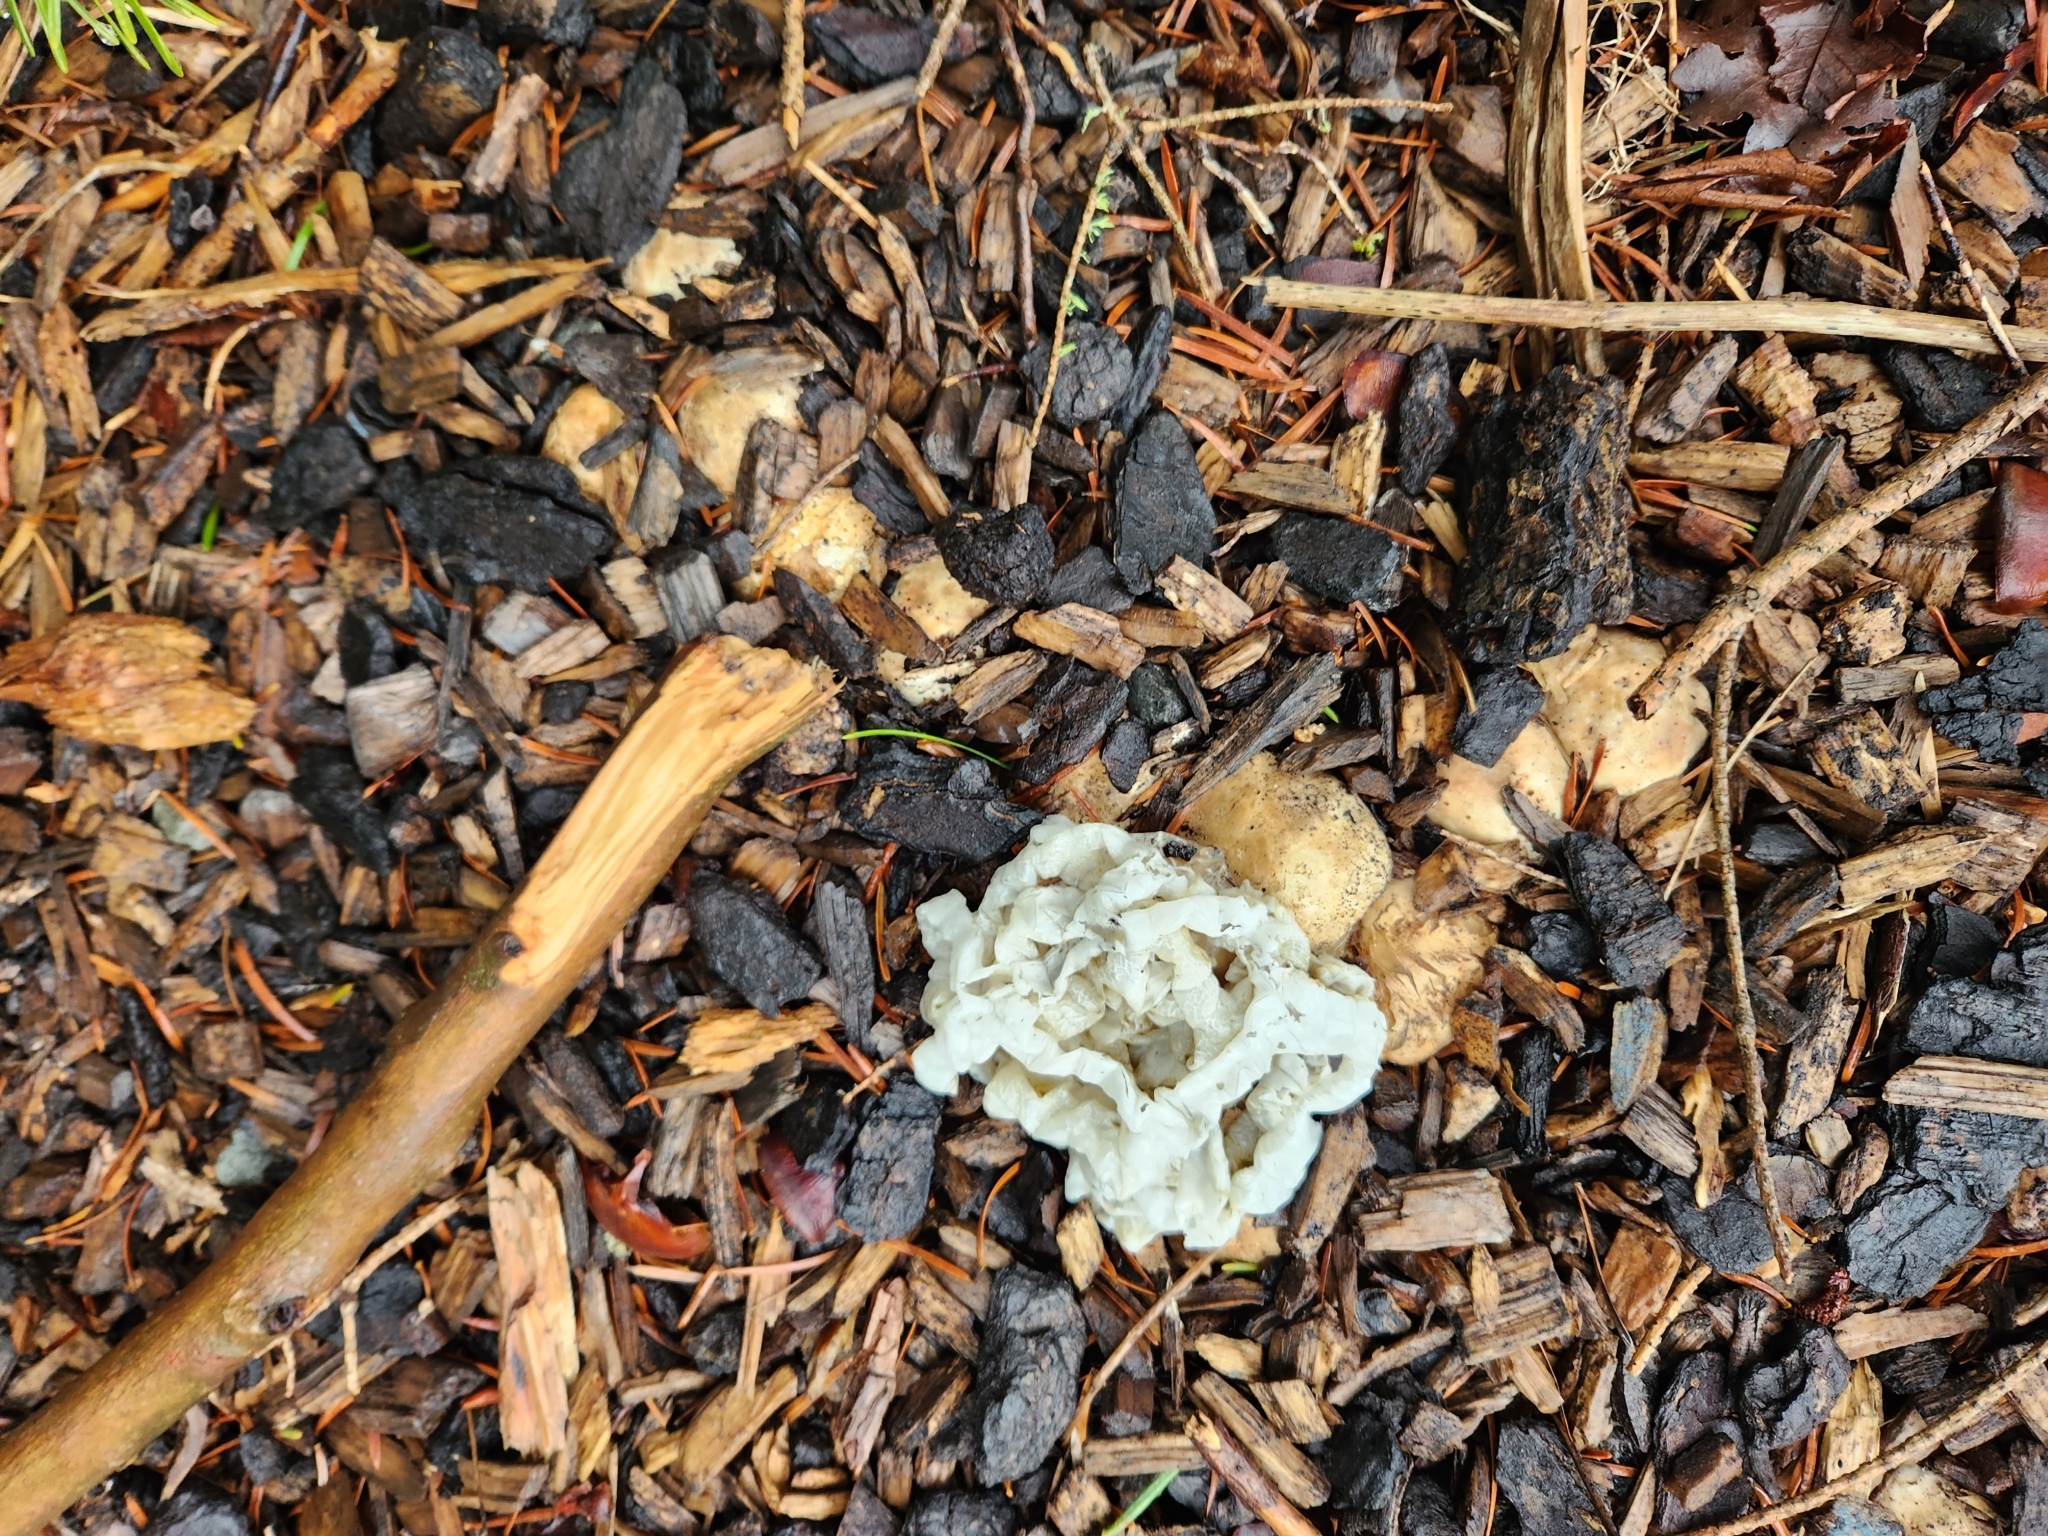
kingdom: Fungi
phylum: Basidiomycota
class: Agaricomycetes
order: Phallales
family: Phallaceae
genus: Ileodictyon
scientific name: Ileodictyon cibarium
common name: Basket fungus
